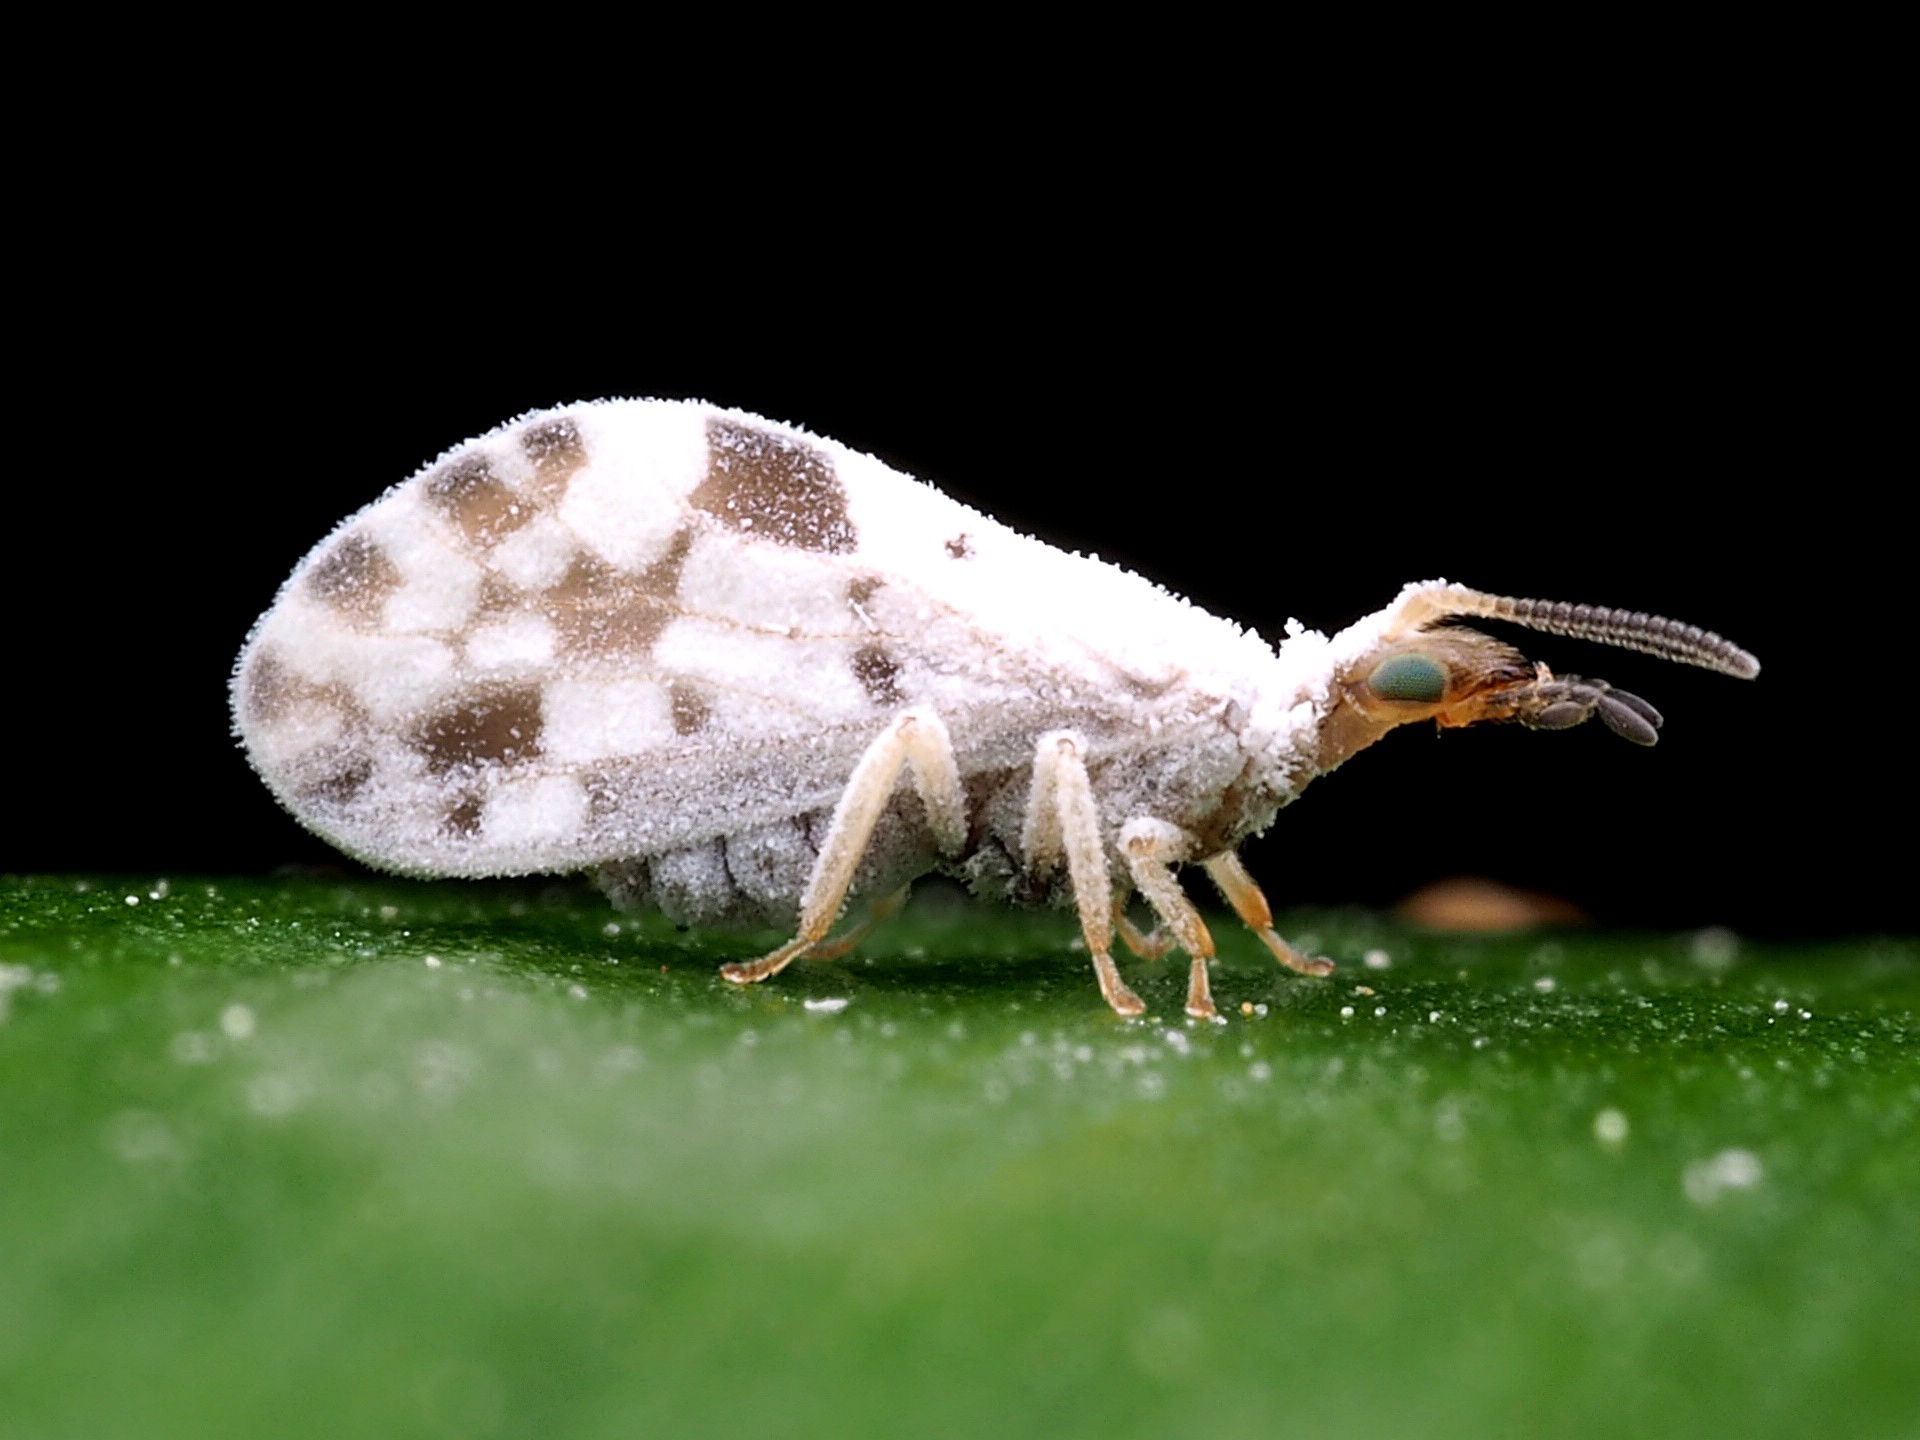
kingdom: Animalia
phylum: Arthropoda
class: Insecta
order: Neuroptera
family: Coniopterygidae
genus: Heteroconis
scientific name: Heteroconis ornata
